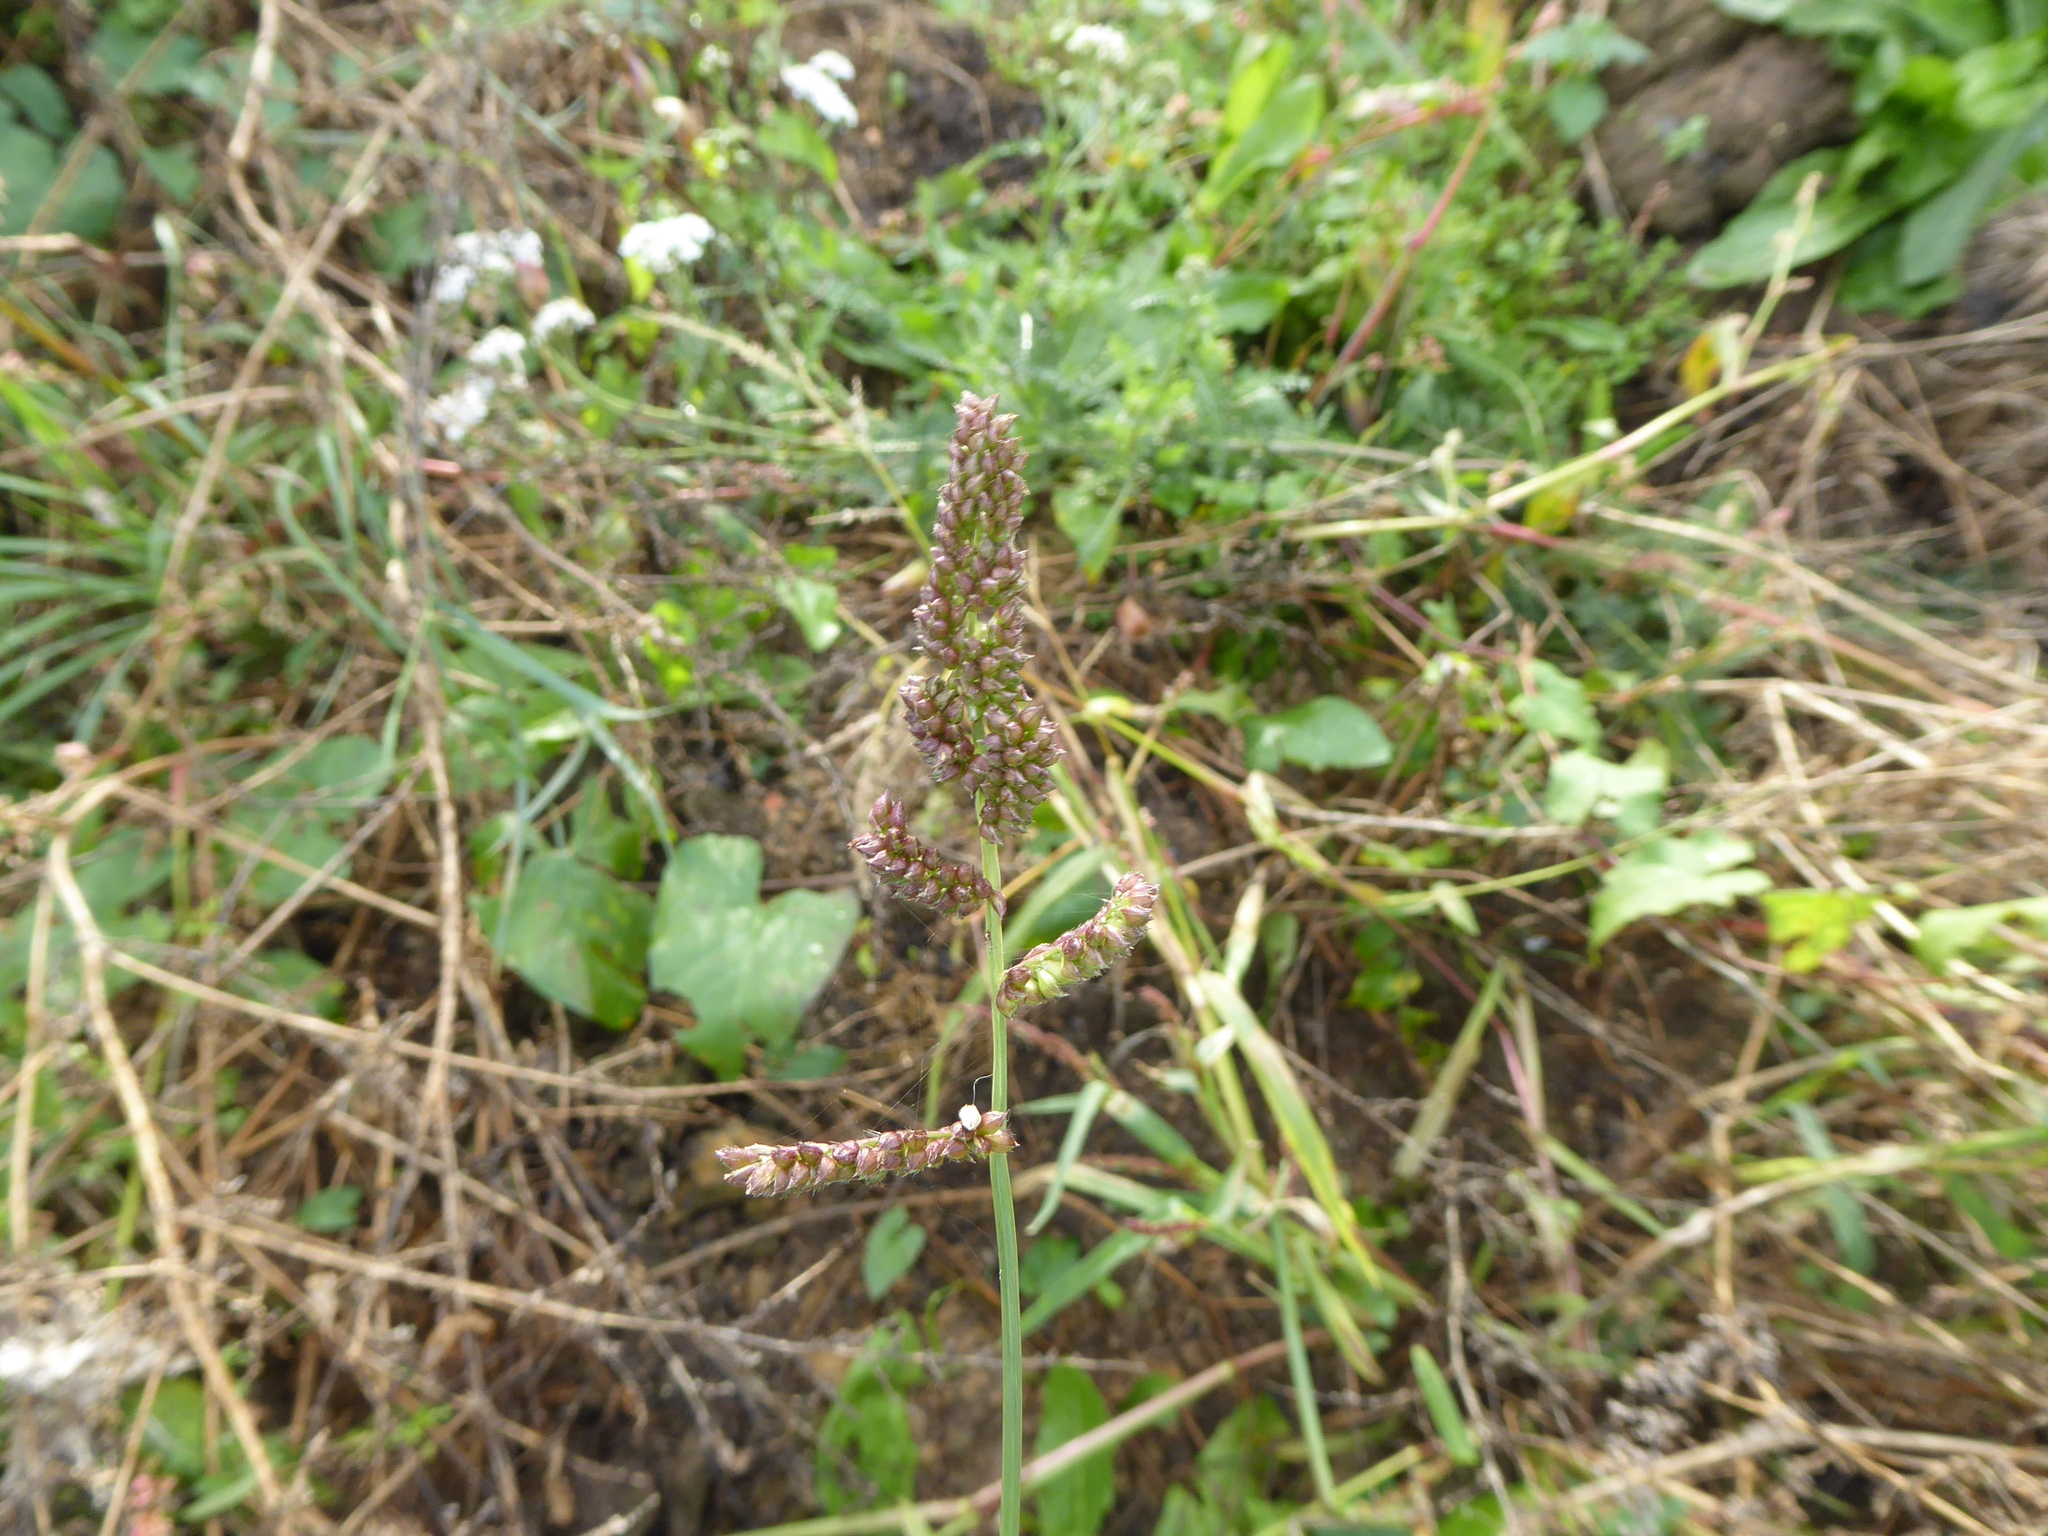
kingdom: Plantae
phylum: Tracheophyta
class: Liliopsida
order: Poales
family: Poaceae
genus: Echinochloa
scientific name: Echinochloa crus-galli
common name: Cockspur
